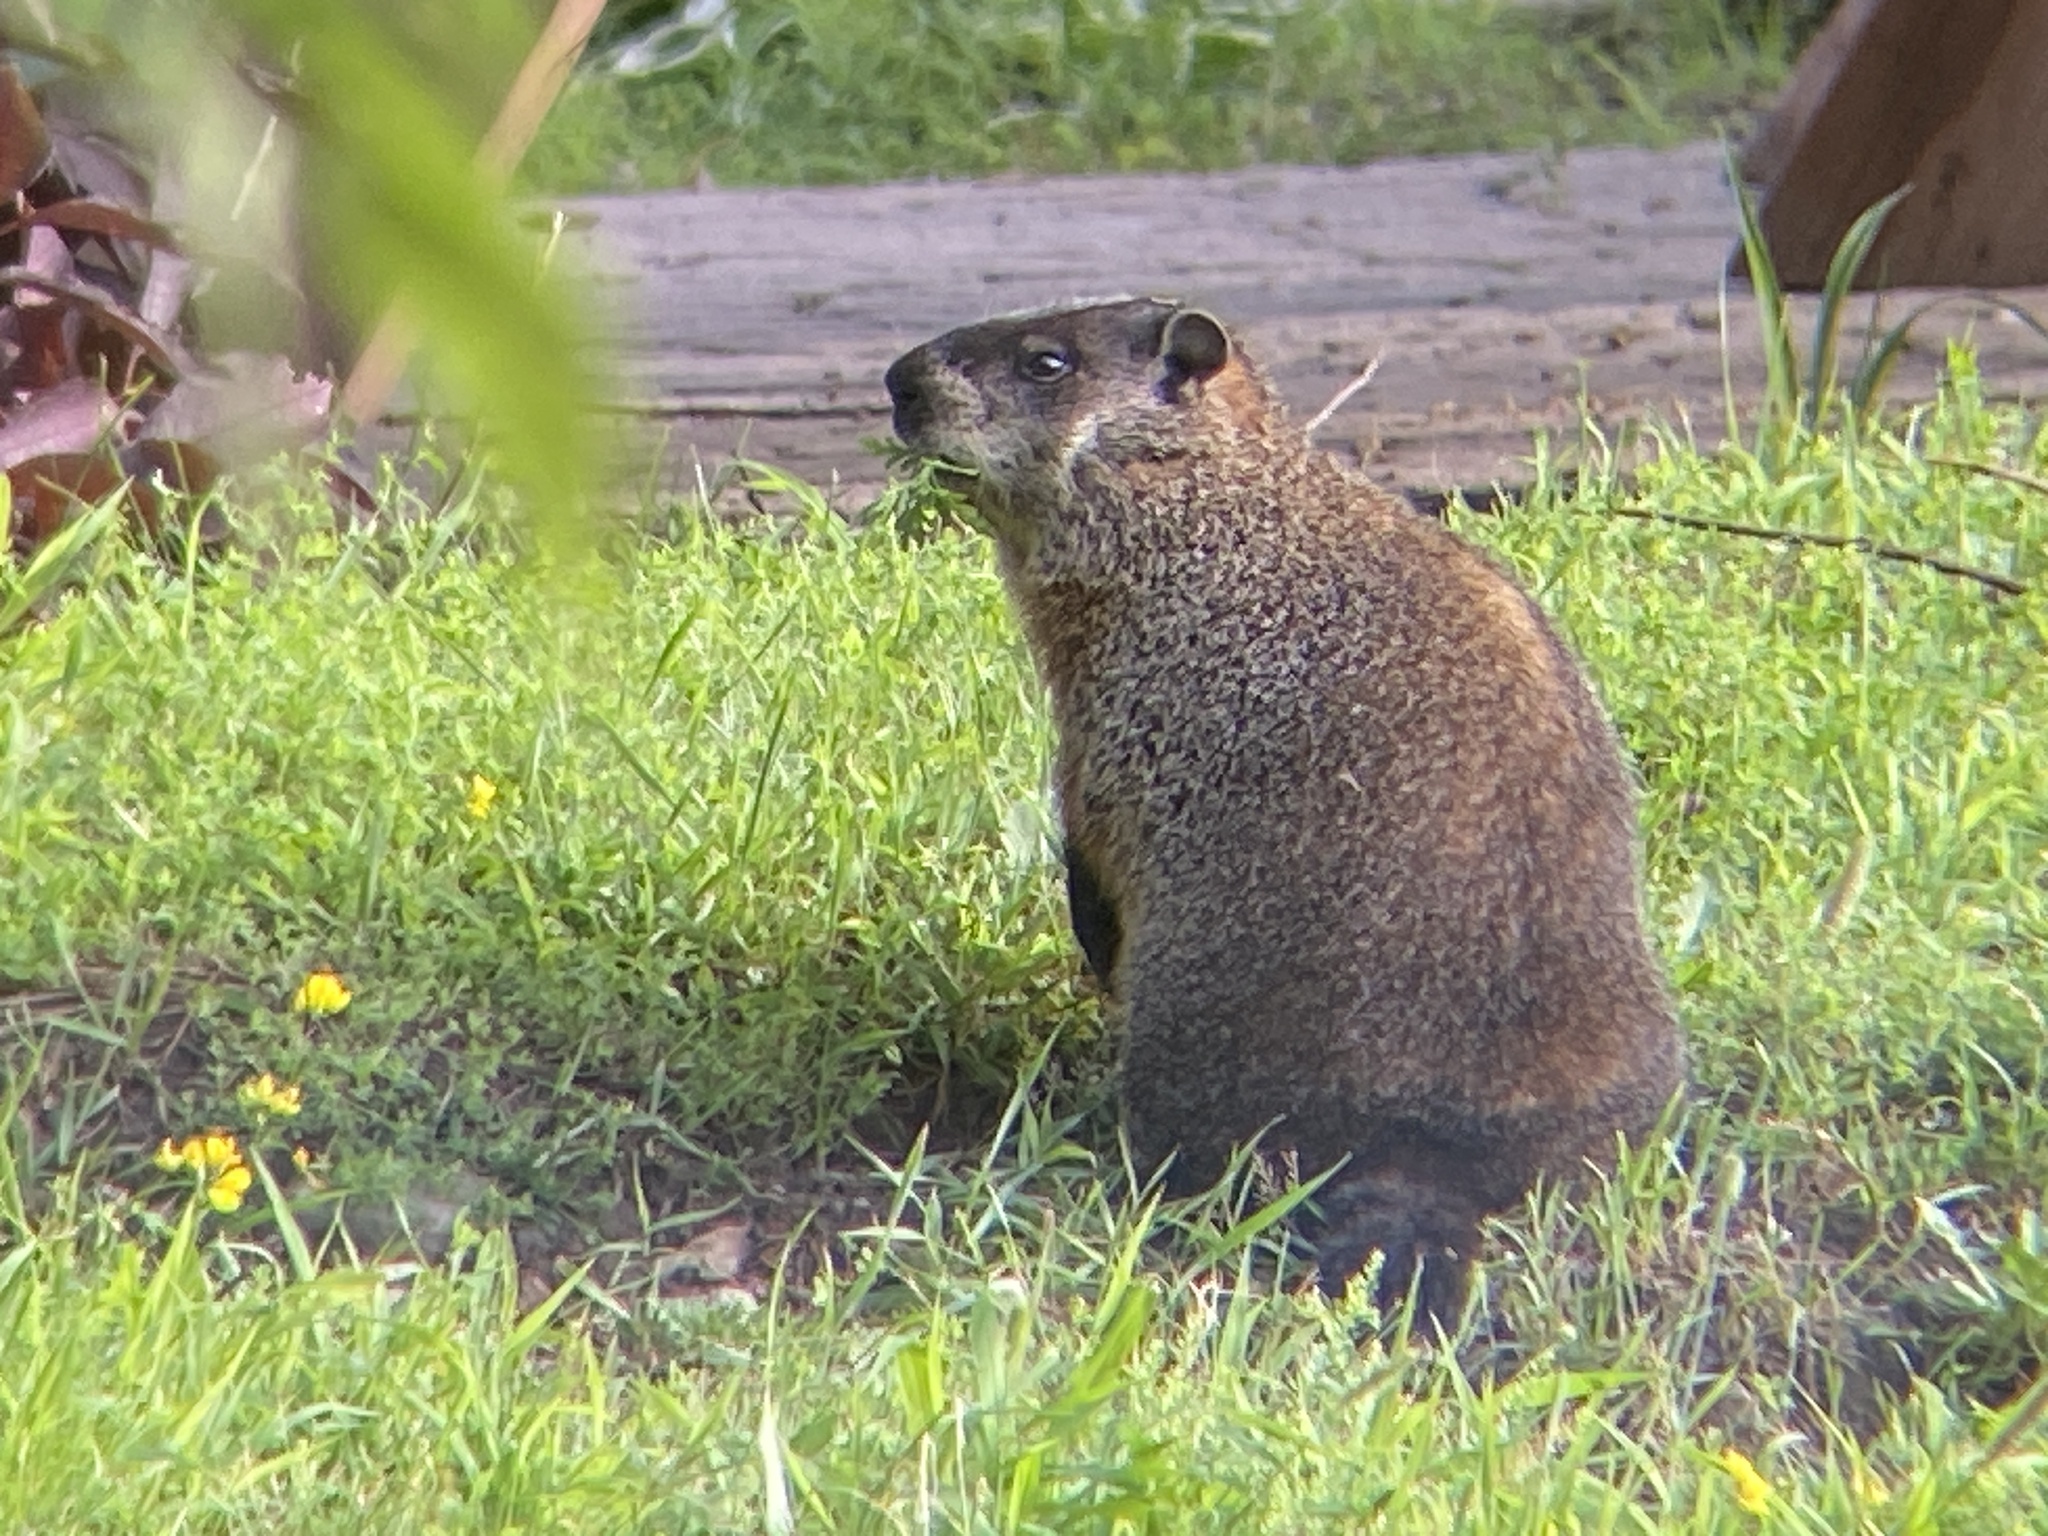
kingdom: Animalia
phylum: Chordata
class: Mammalia
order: Rodentia
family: Sciuridae
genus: Marmota
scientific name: Marmota monax
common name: Groundhog
